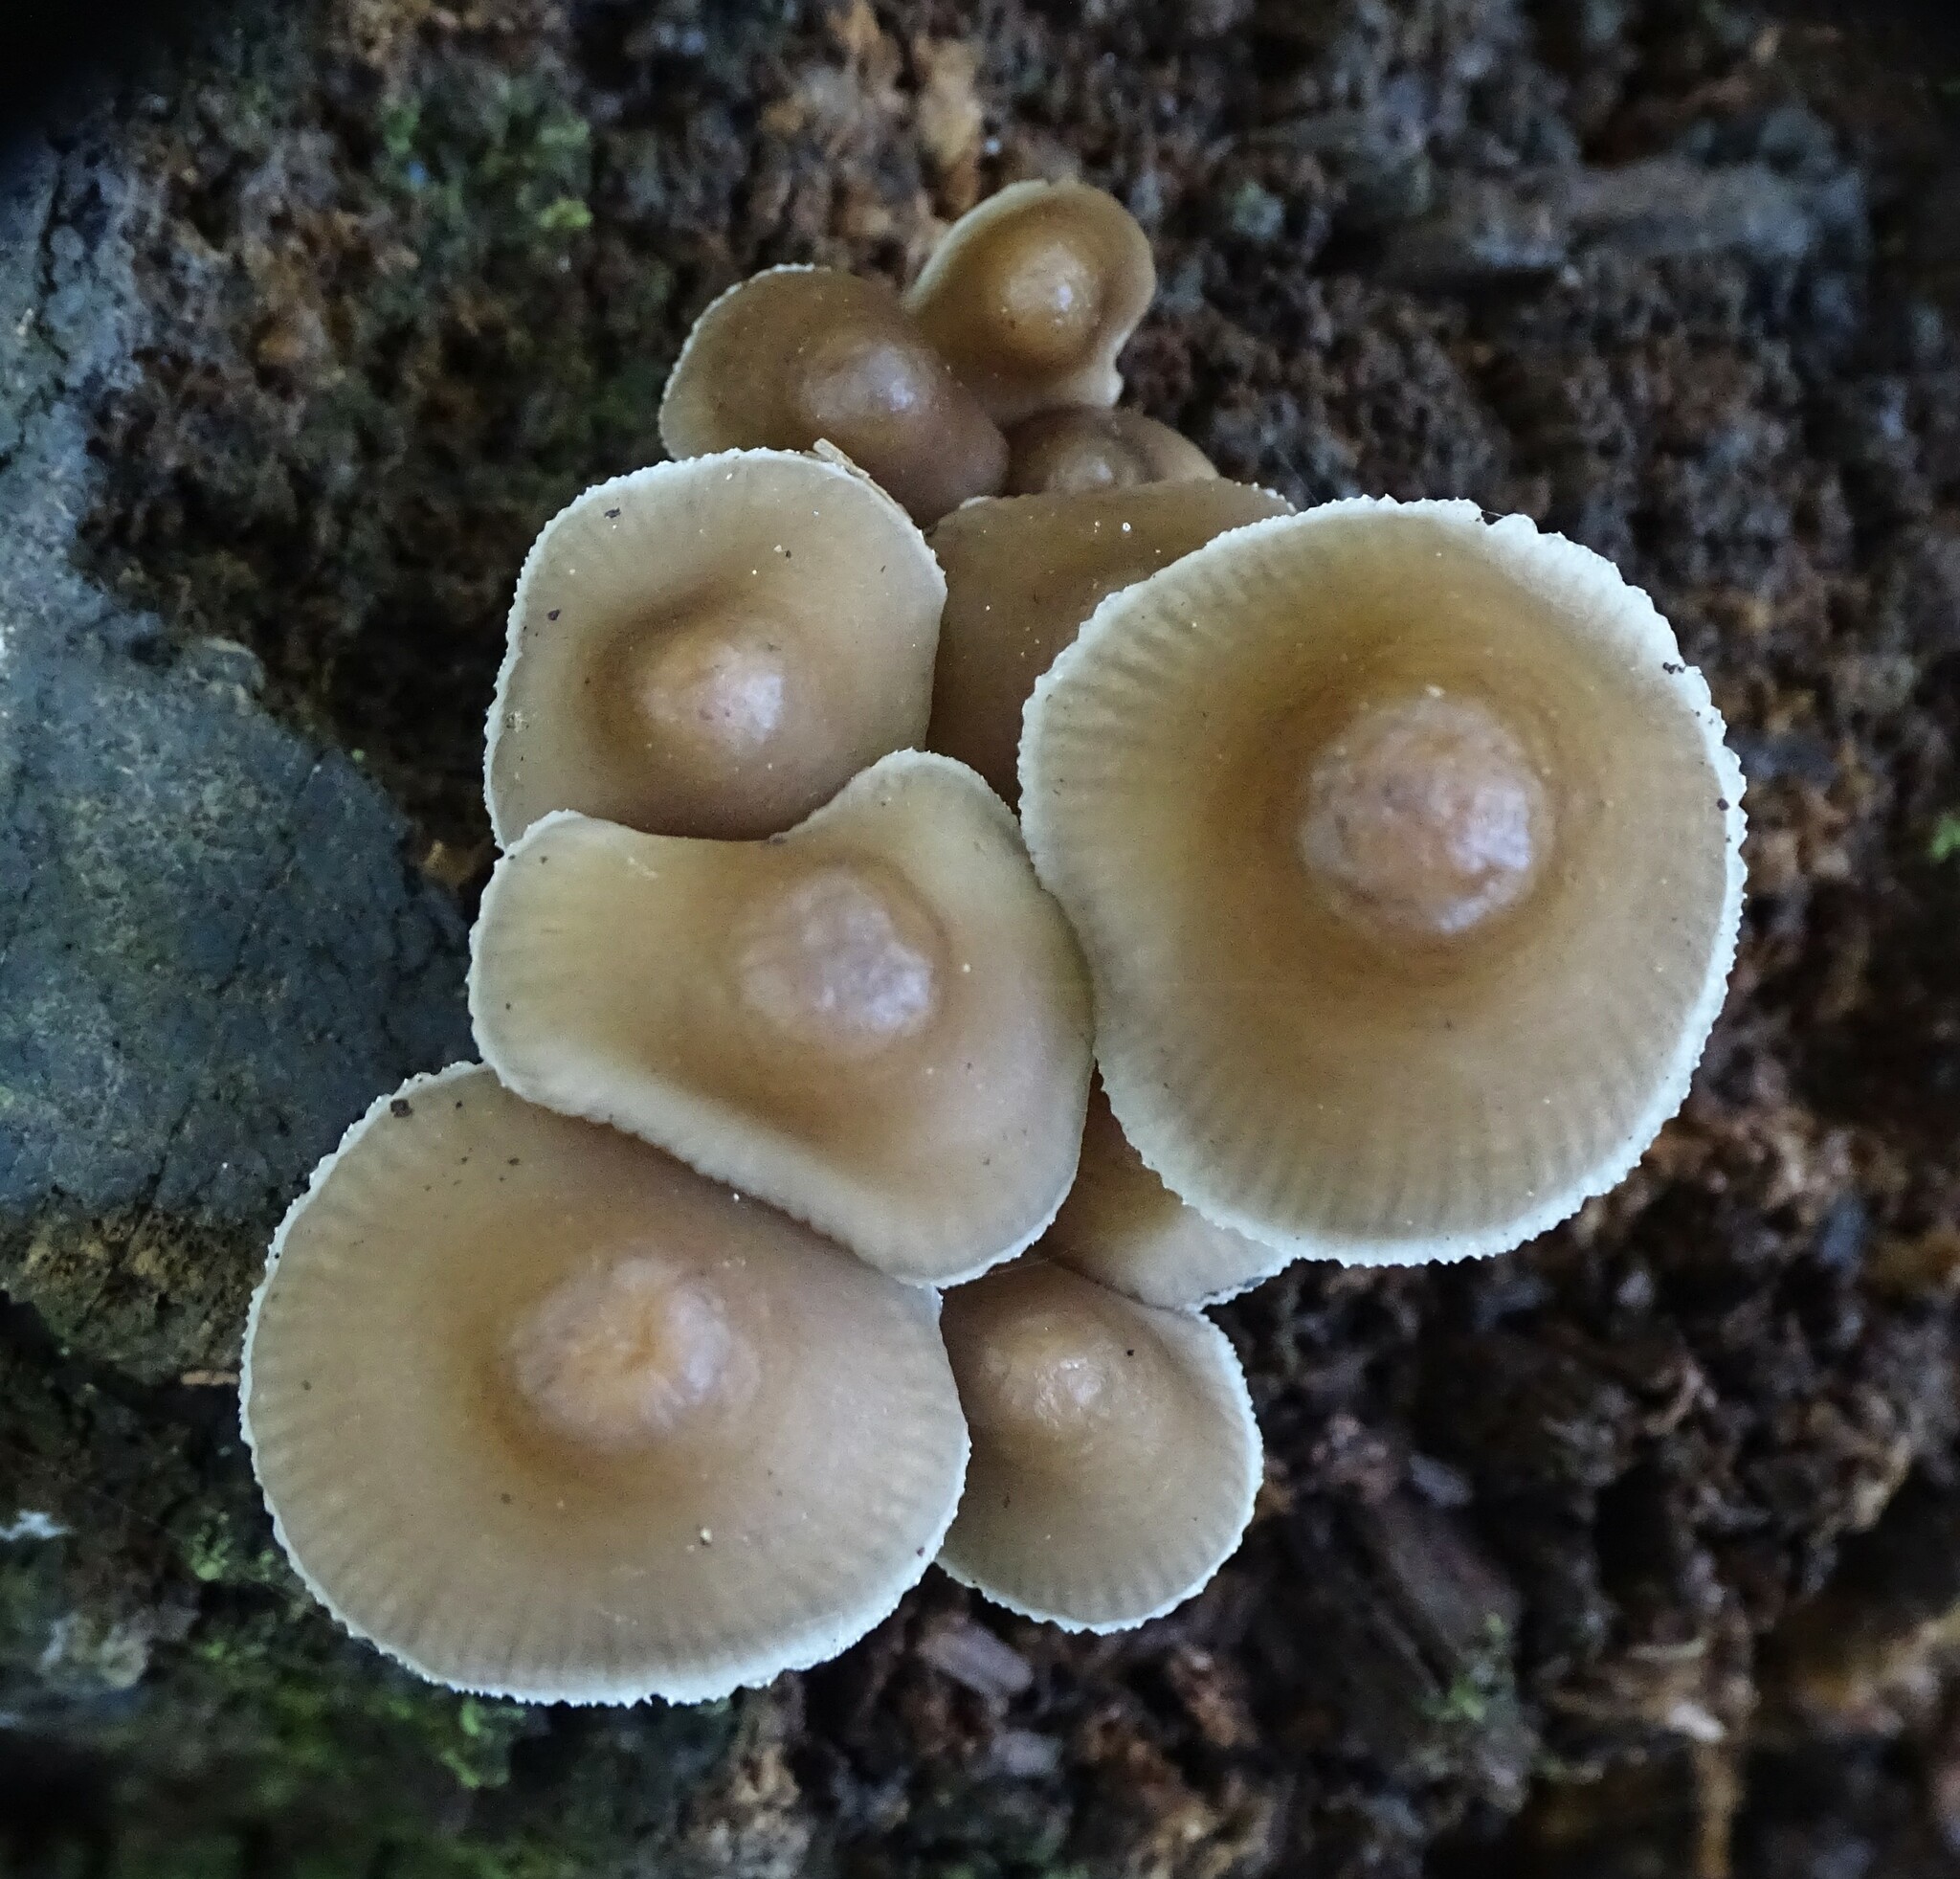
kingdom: Fungi
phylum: Basidiomycota
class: Agaricomycetes
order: Agaricales
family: Mycenaceae
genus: Mycena
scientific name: Mycena inclinata
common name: Clustered bonnet
